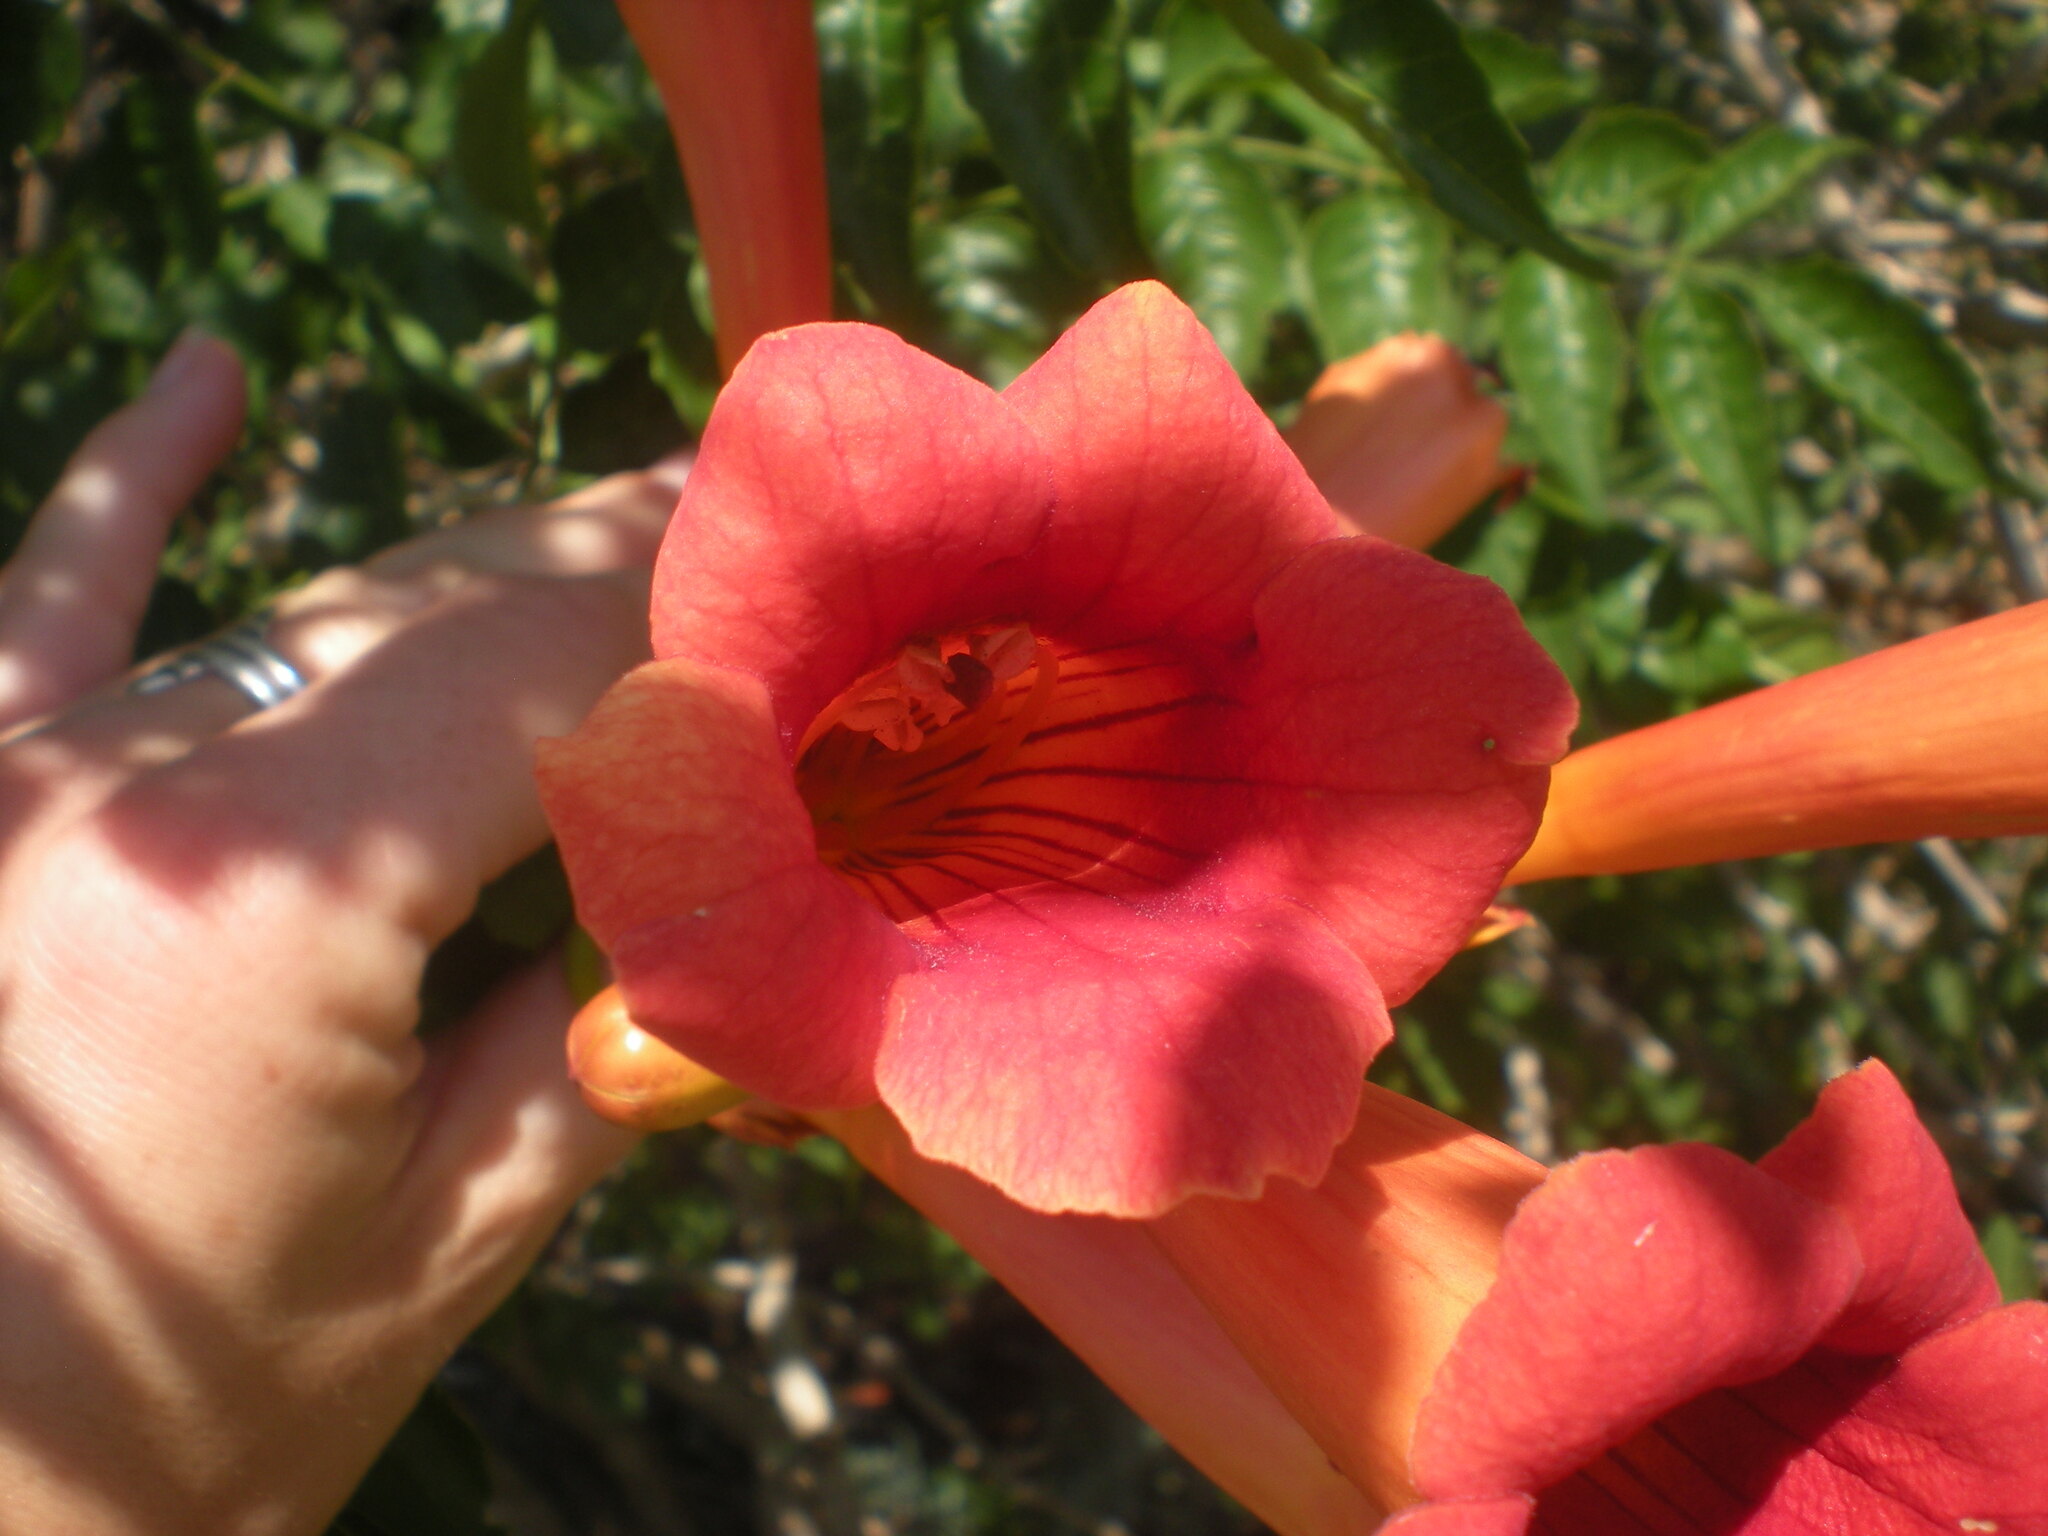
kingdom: Plantae
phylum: Tracheophyta
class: Magnoliopsida
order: Lamiales
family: Bignoniaceae
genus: Campsis
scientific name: Campsis radicans
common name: Trumpet-creeper
